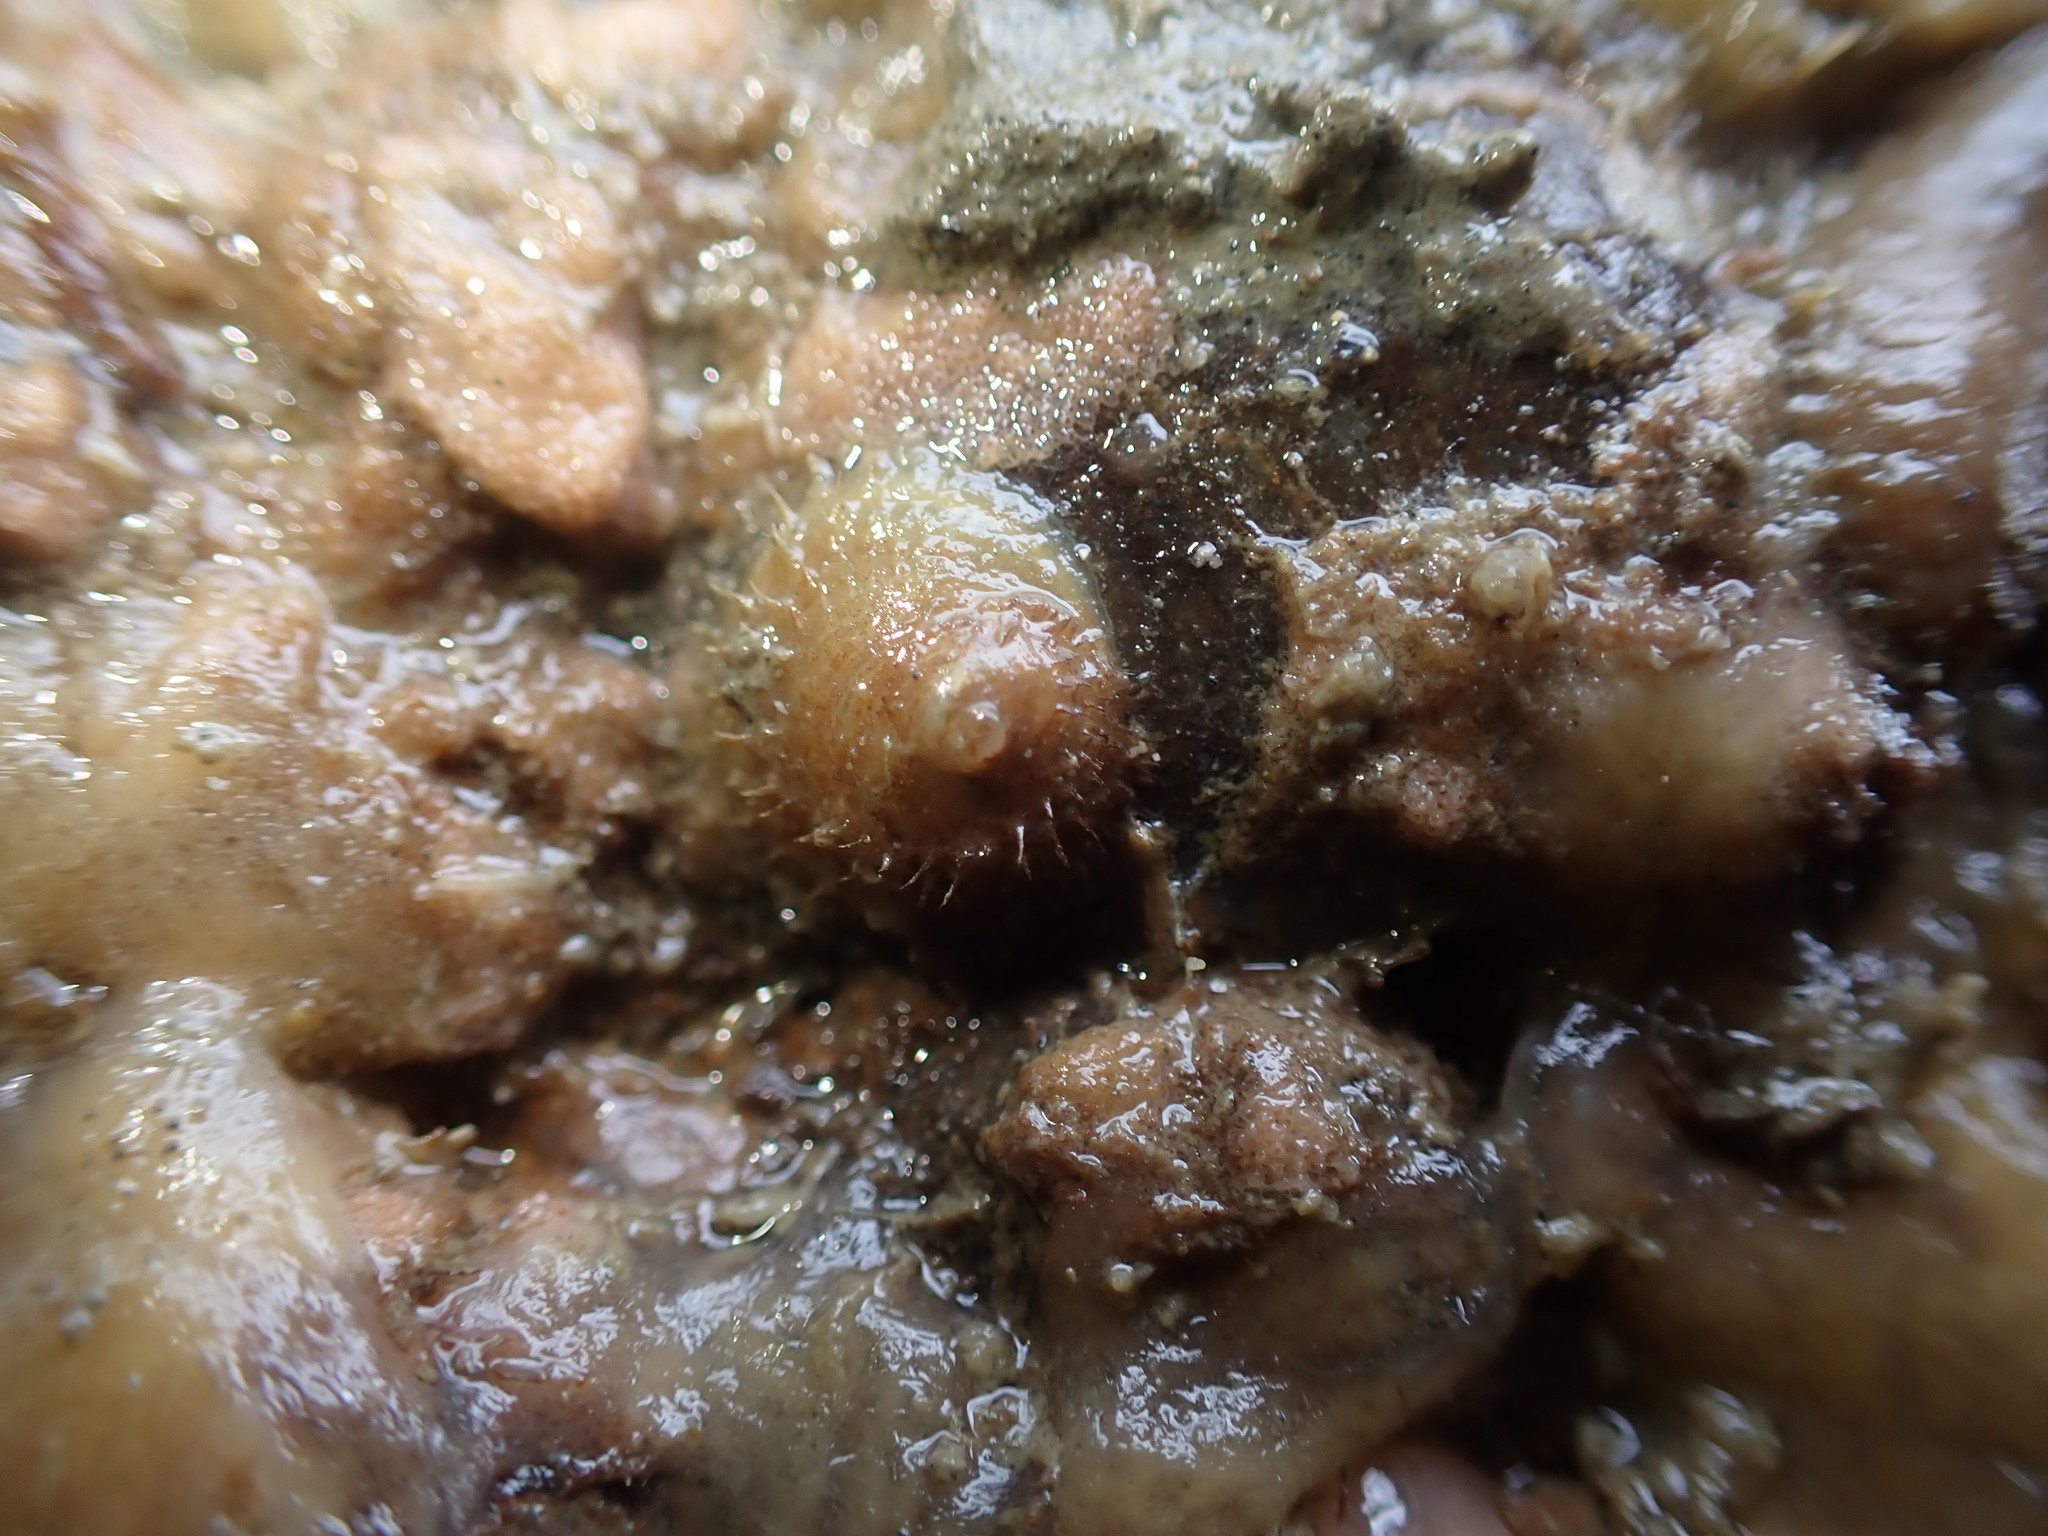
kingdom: Animalia
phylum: Mollusca
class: Gastropoda
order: Littorinimorpha
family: Calyptraeidae
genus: Sigapatella
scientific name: Sigapatella novaezelandiae
